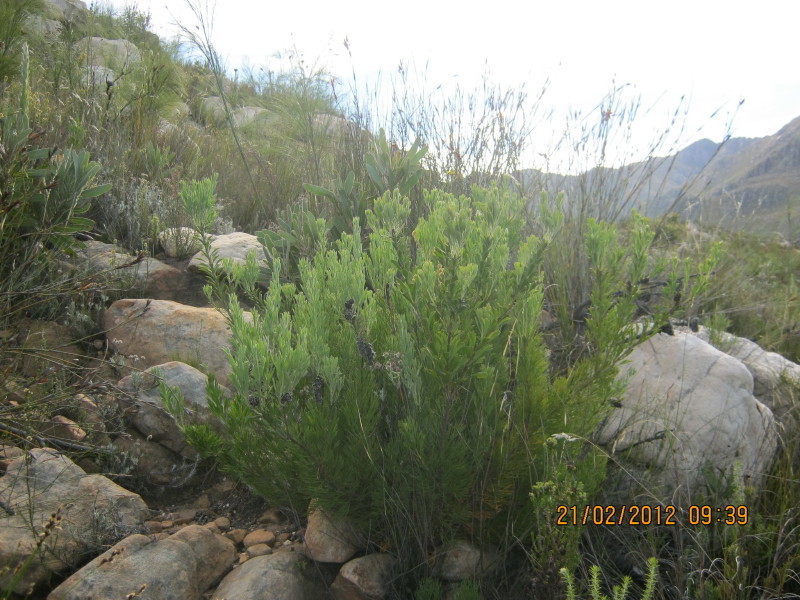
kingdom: Plantae
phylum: Tracheophyta
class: Magnoliopsida
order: Proteales
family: Proteaceae
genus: Paranomus
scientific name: Paranomus dregei
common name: Scented sceptre
